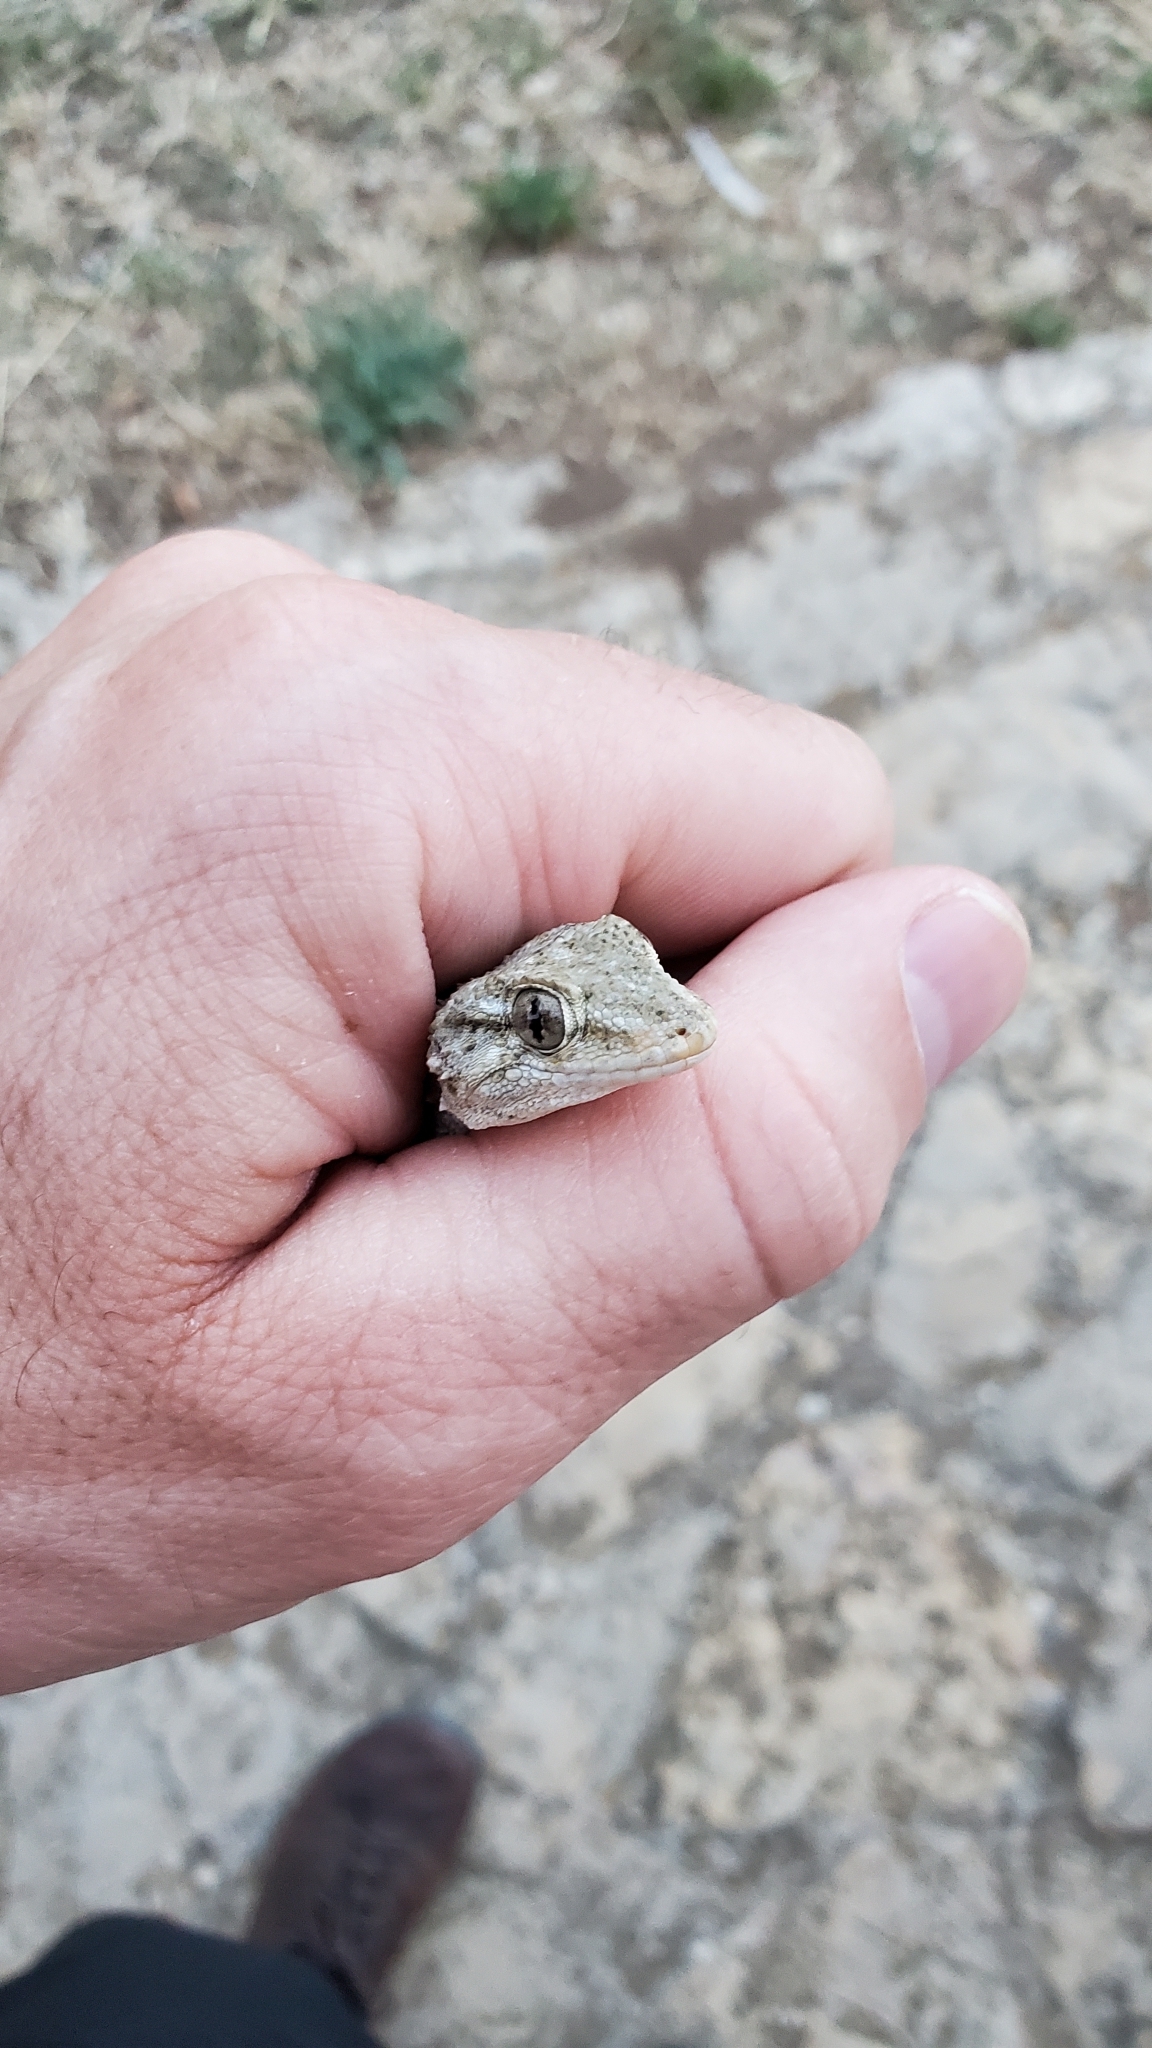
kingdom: Animalia
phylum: Chordata
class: Squamata
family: Phyllodactylidae
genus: Tarentola
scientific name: Tarentola mauritanica
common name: Moorish gecko
